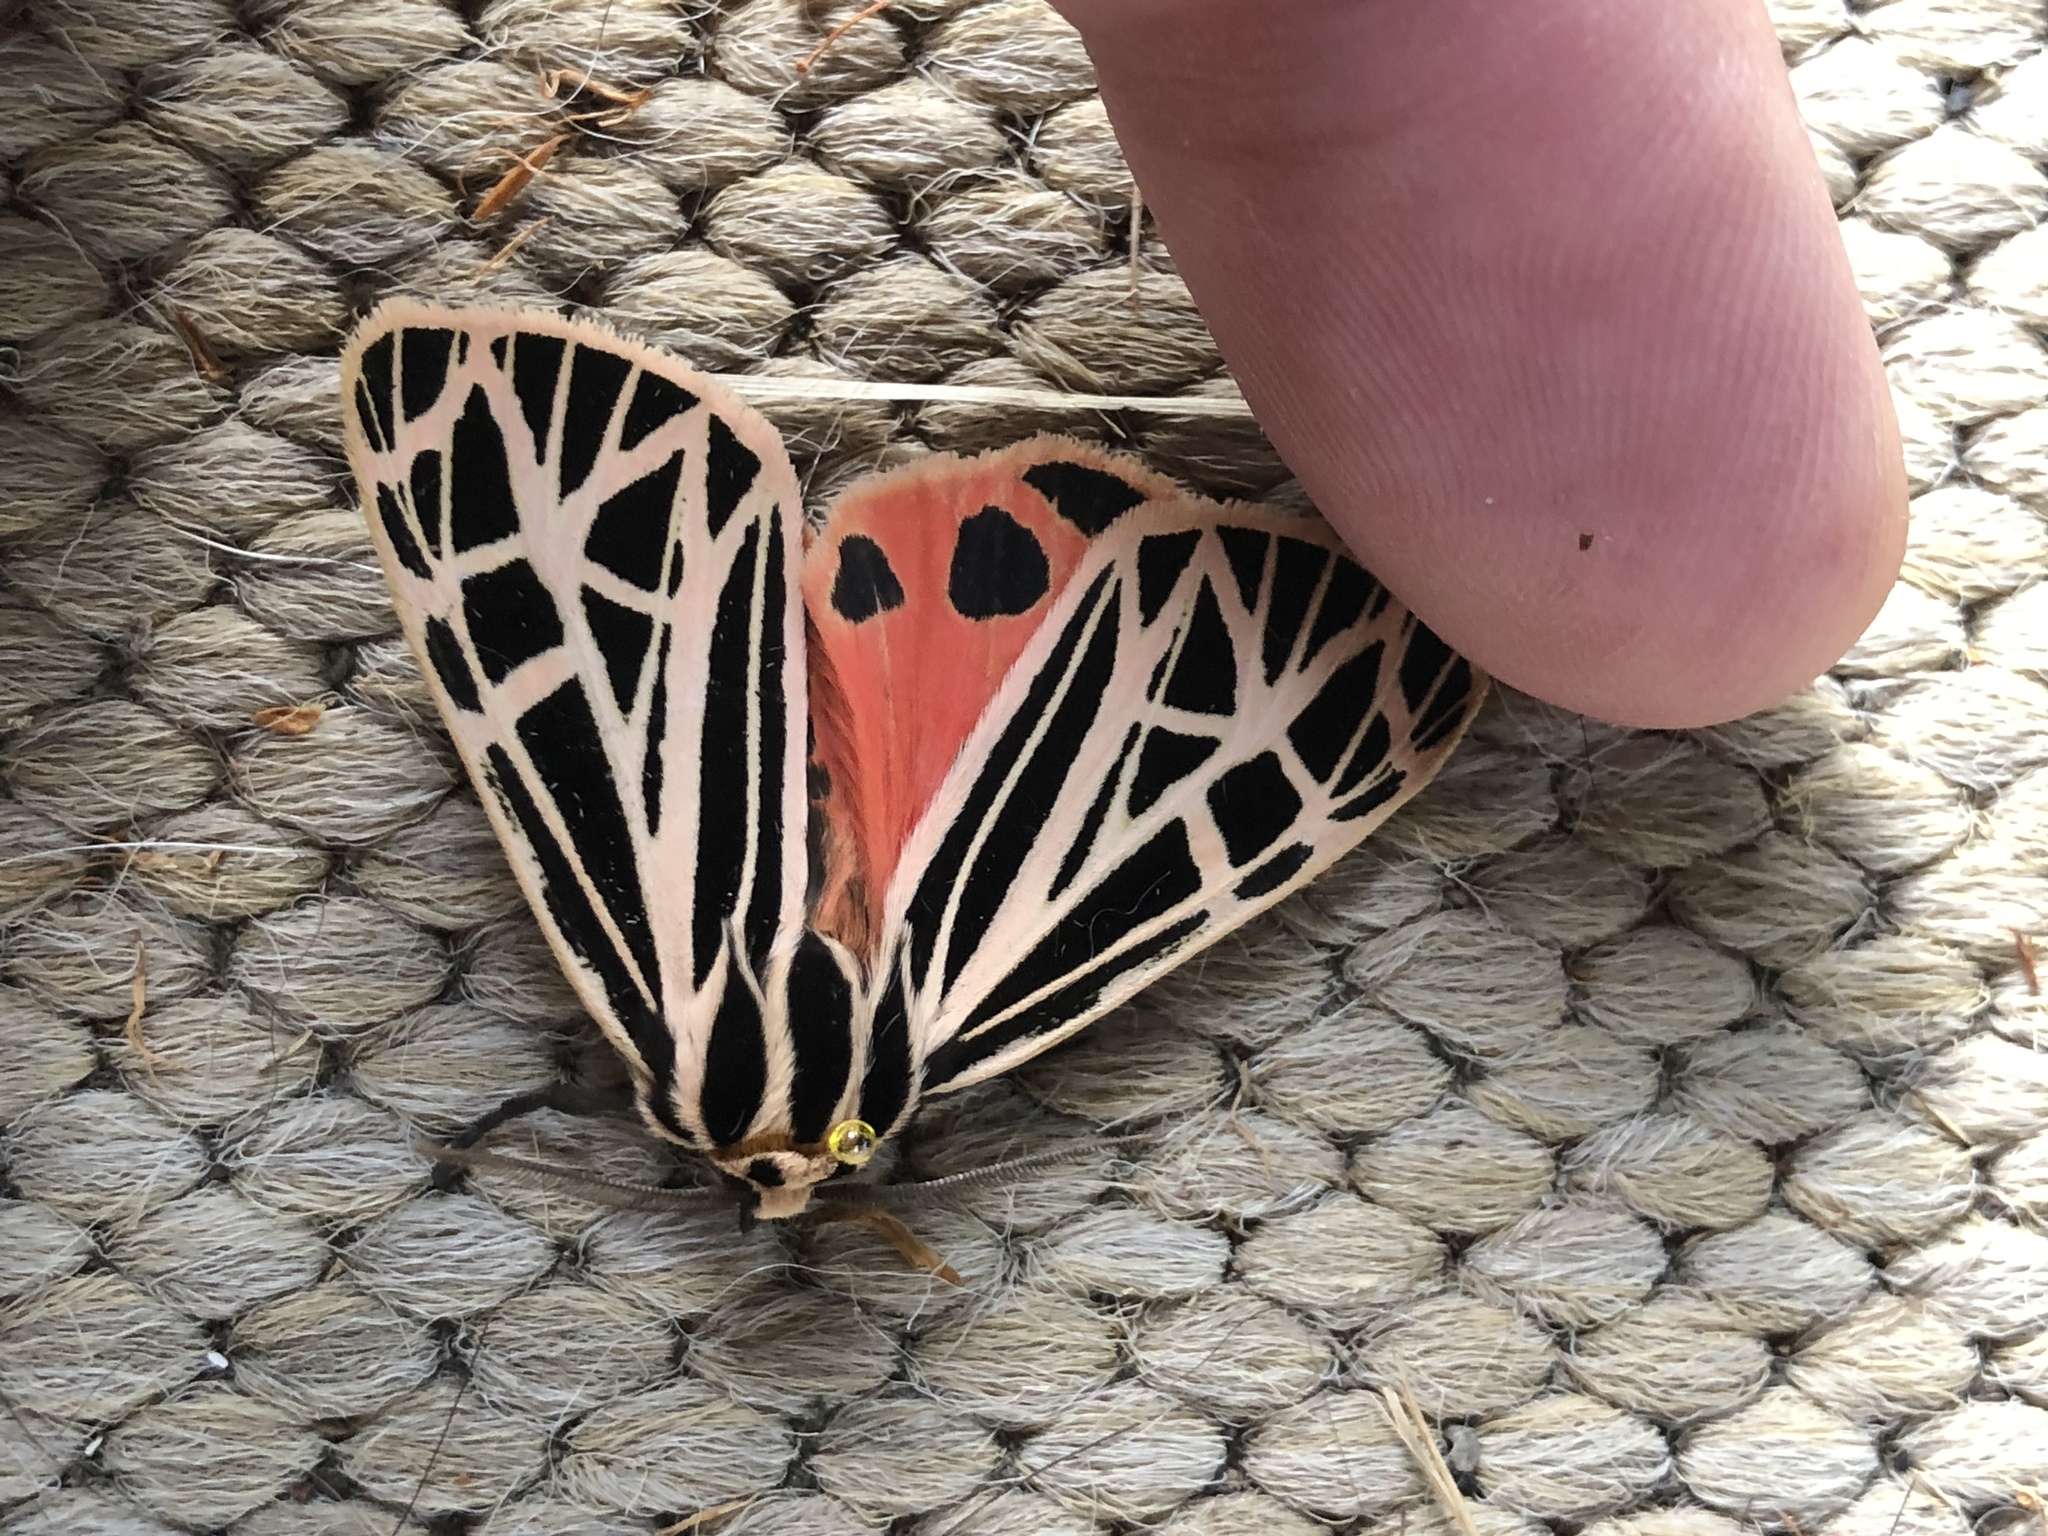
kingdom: Animalia
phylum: Arthropoda
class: Insecta
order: Lepidoptera
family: Erebidae
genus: Grammia
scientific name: Grammia virgo
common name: Virgin tiger moth
